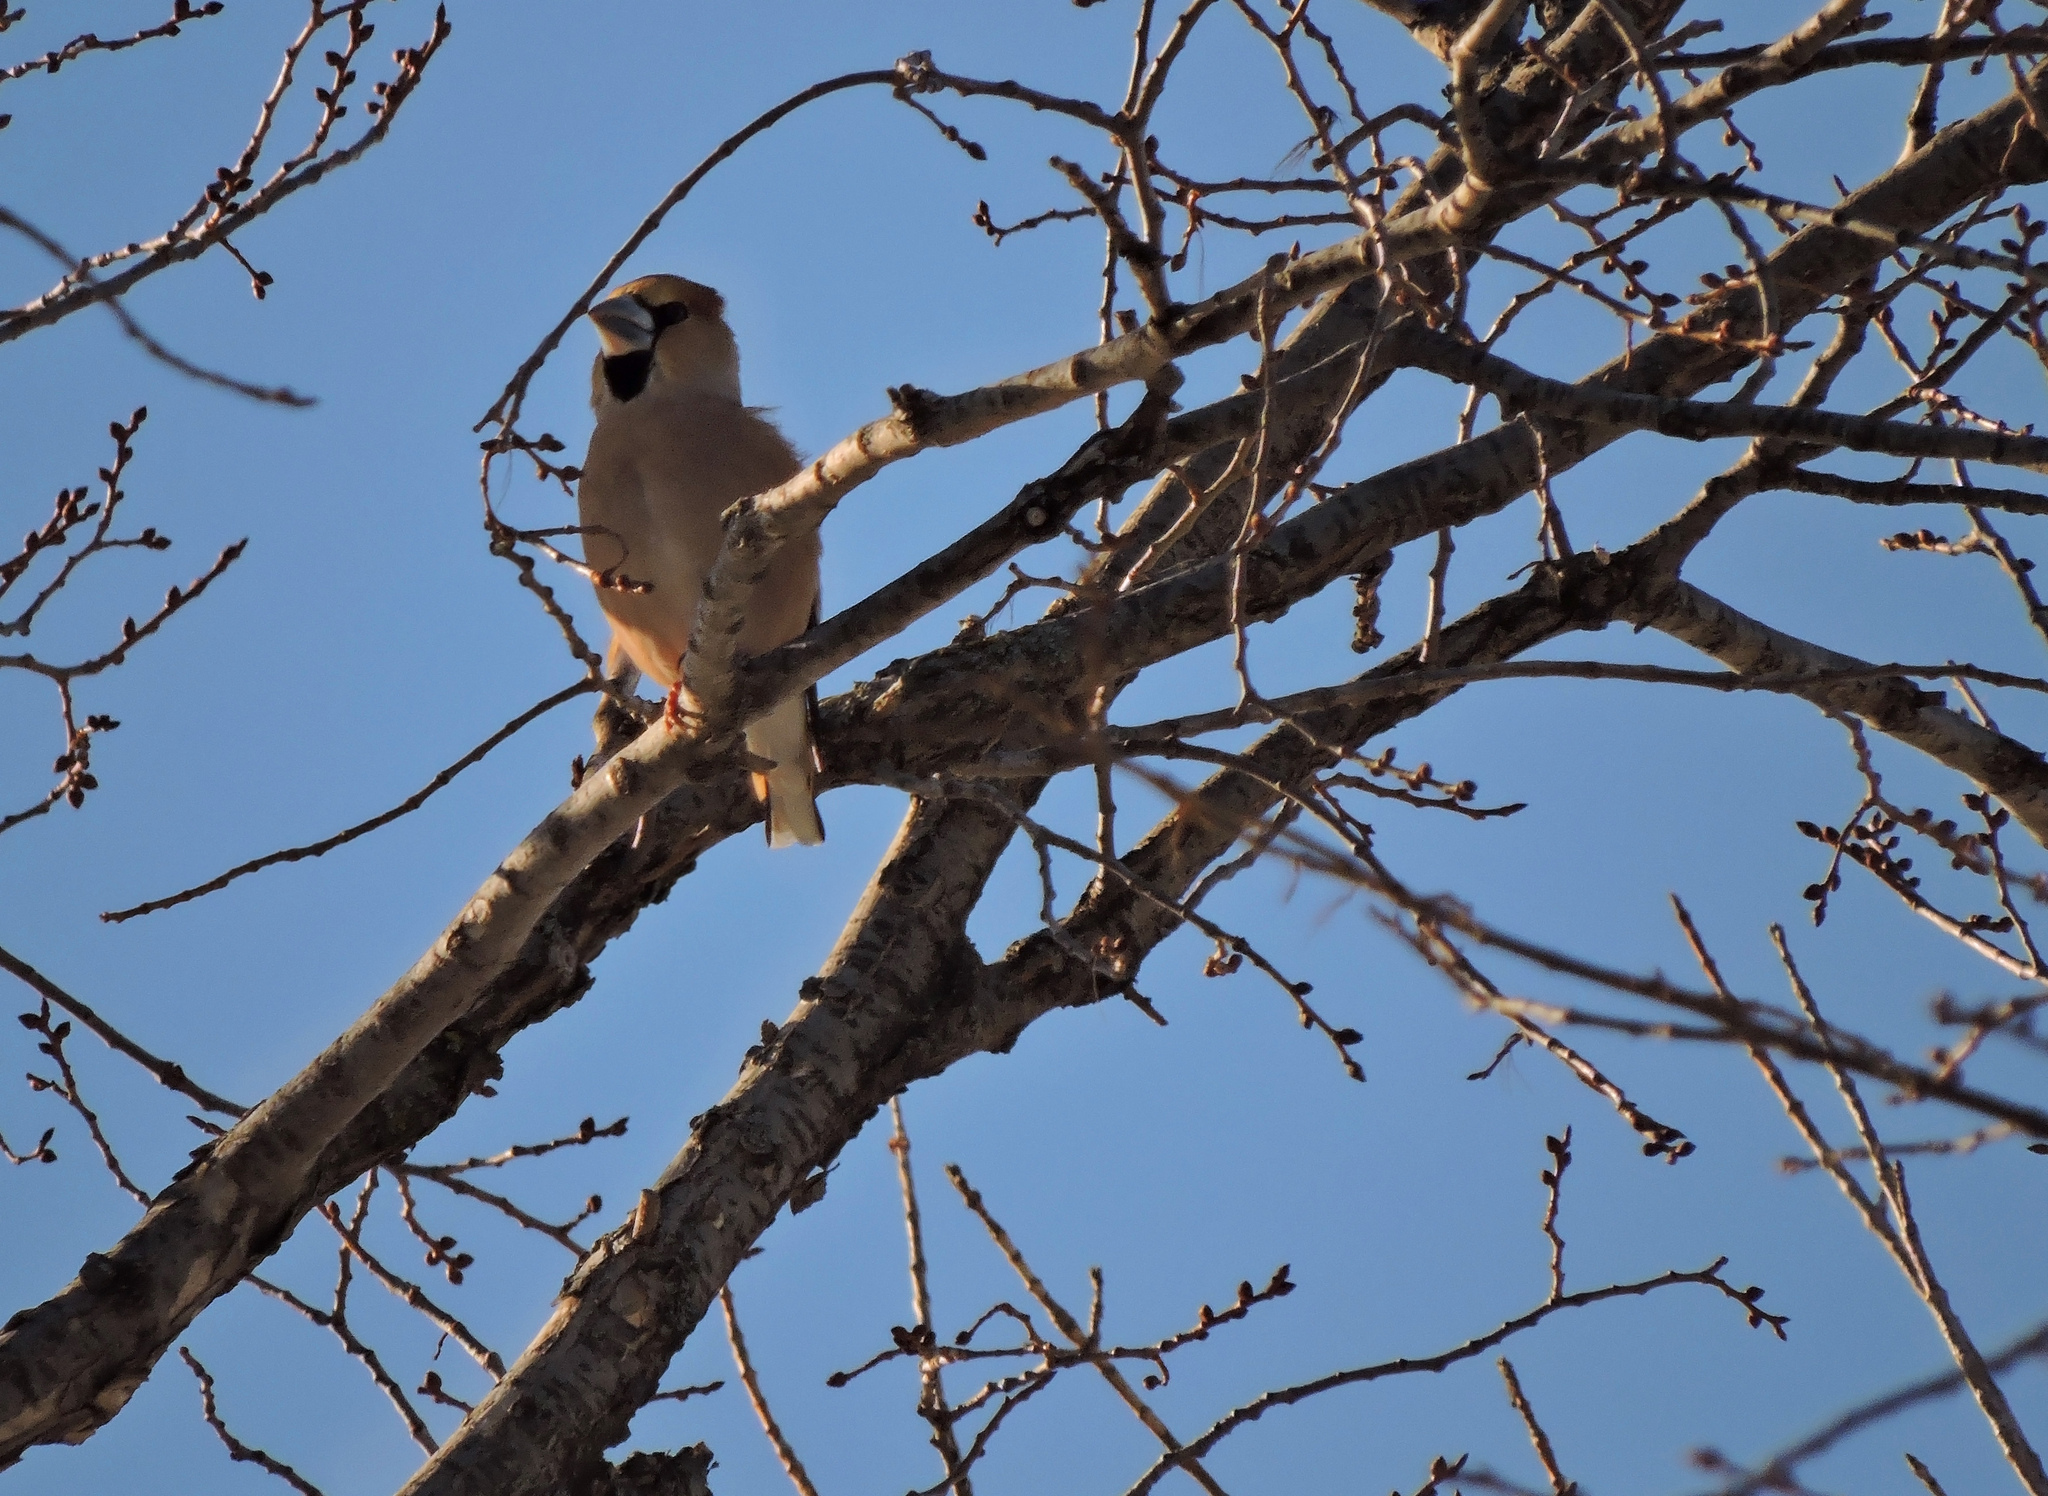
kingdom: Animalia
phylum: Chordata
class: Aves
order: Passeriformes
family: Fringillidae
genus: Coccothraustes
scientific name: Coccothraustes coccothraustes
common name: Hawfinch
